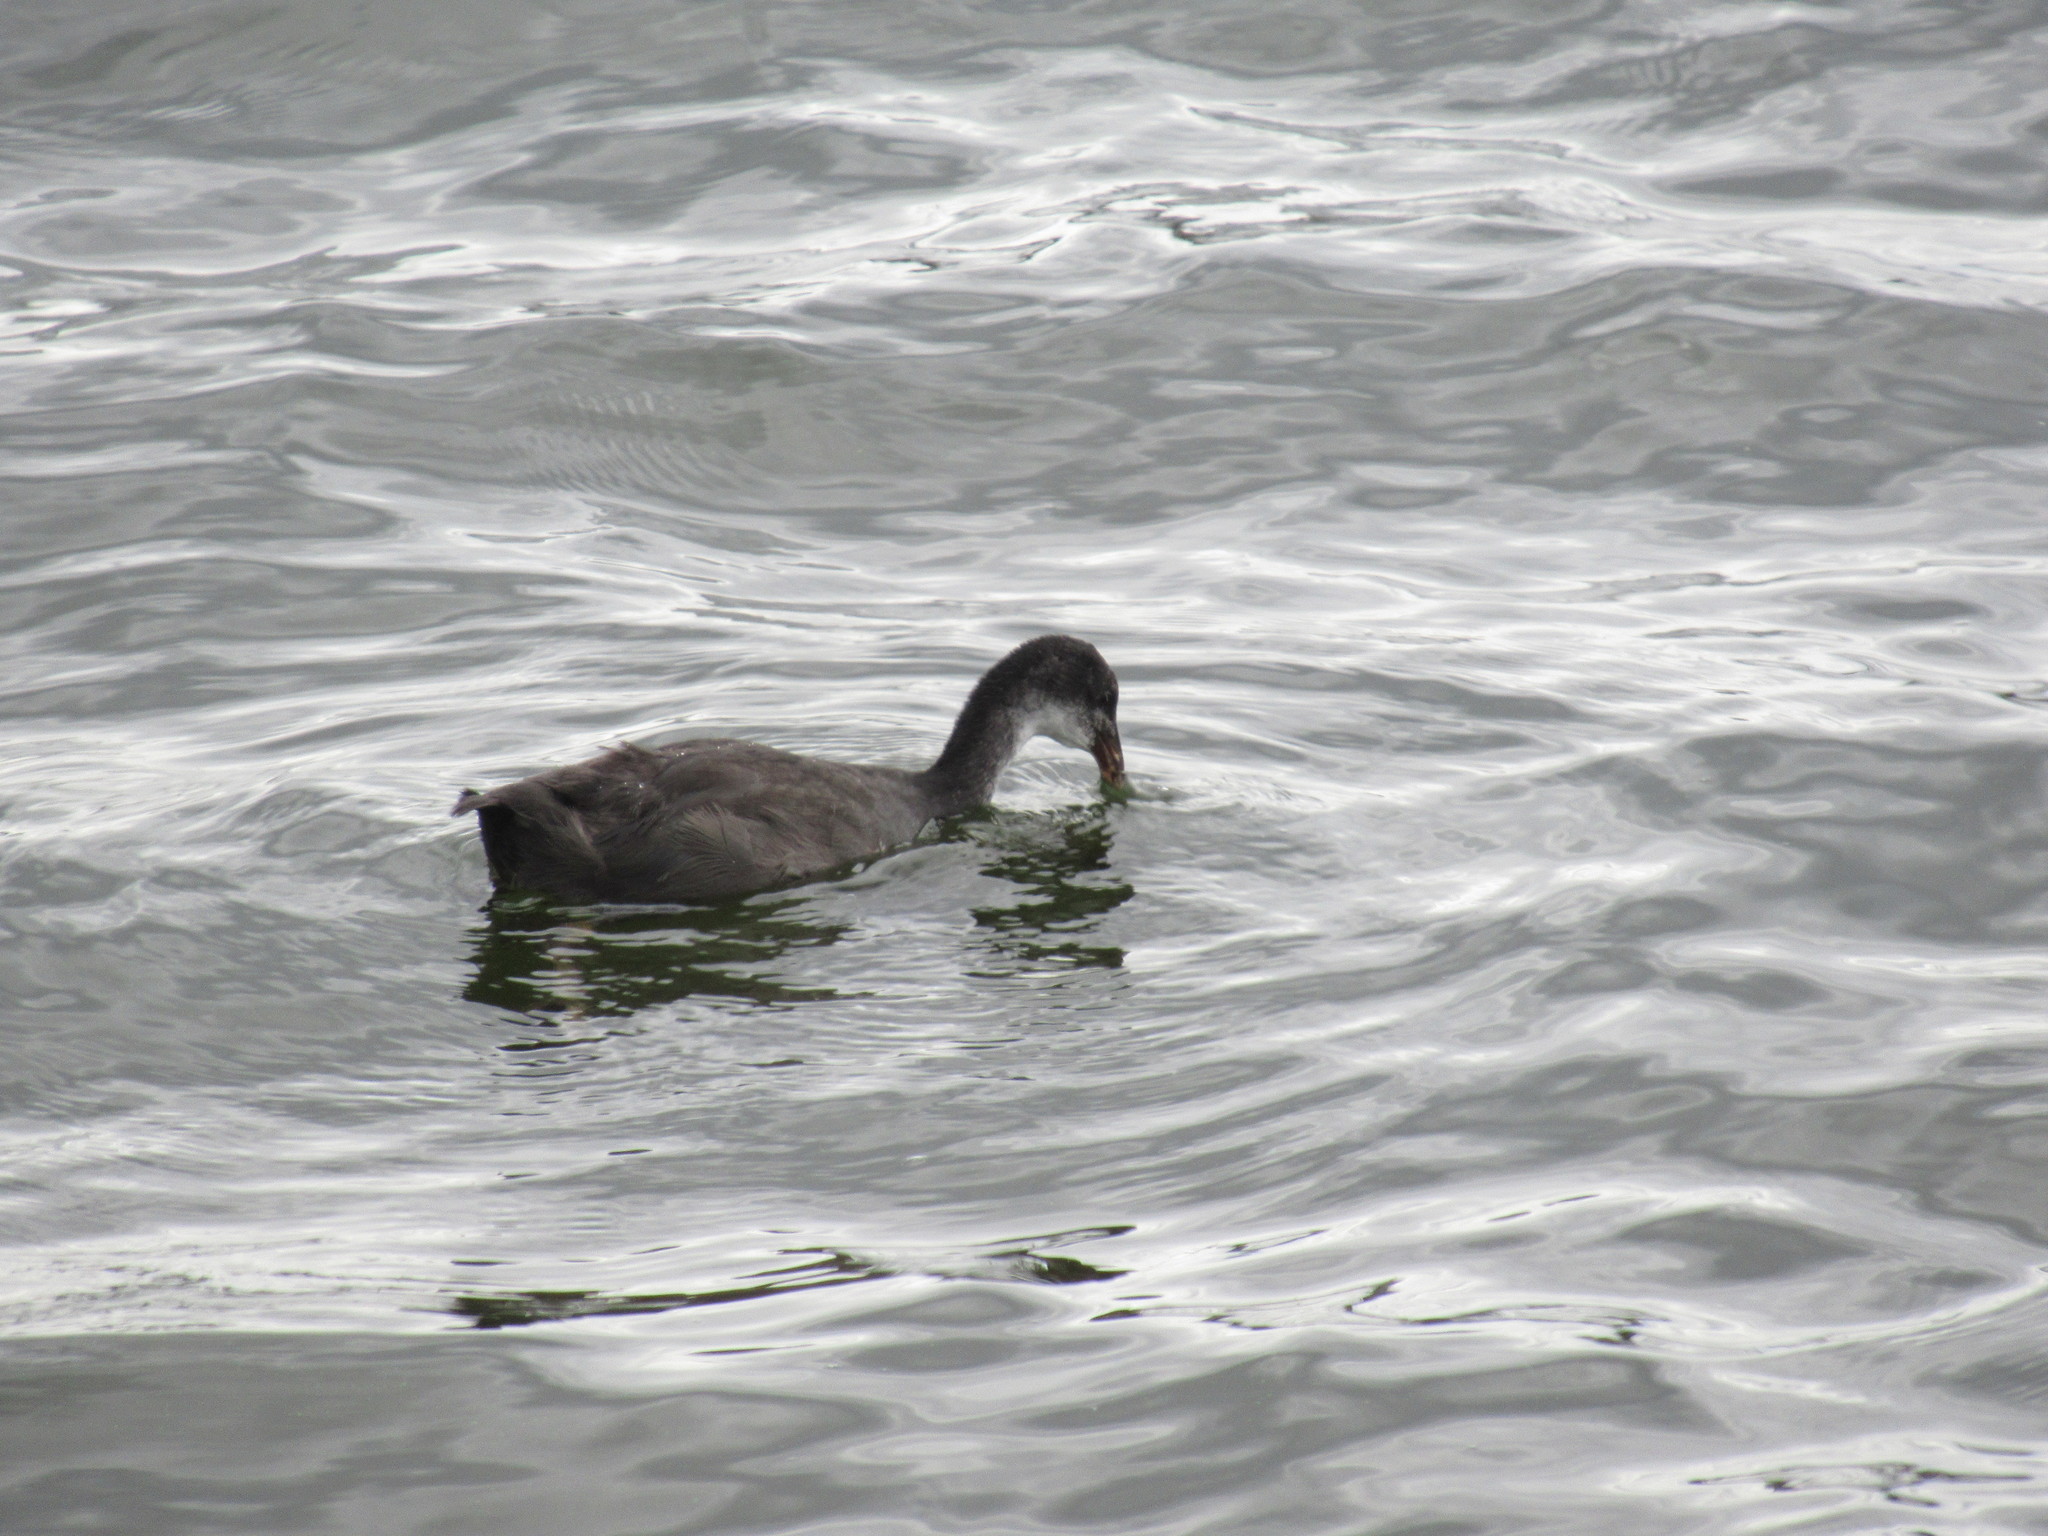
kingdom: Animalia
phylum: Chordata
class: Aves
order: Gruiformes
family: Rallidae
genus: Fulica
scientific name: Fulica atra
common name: Eurasian coot
